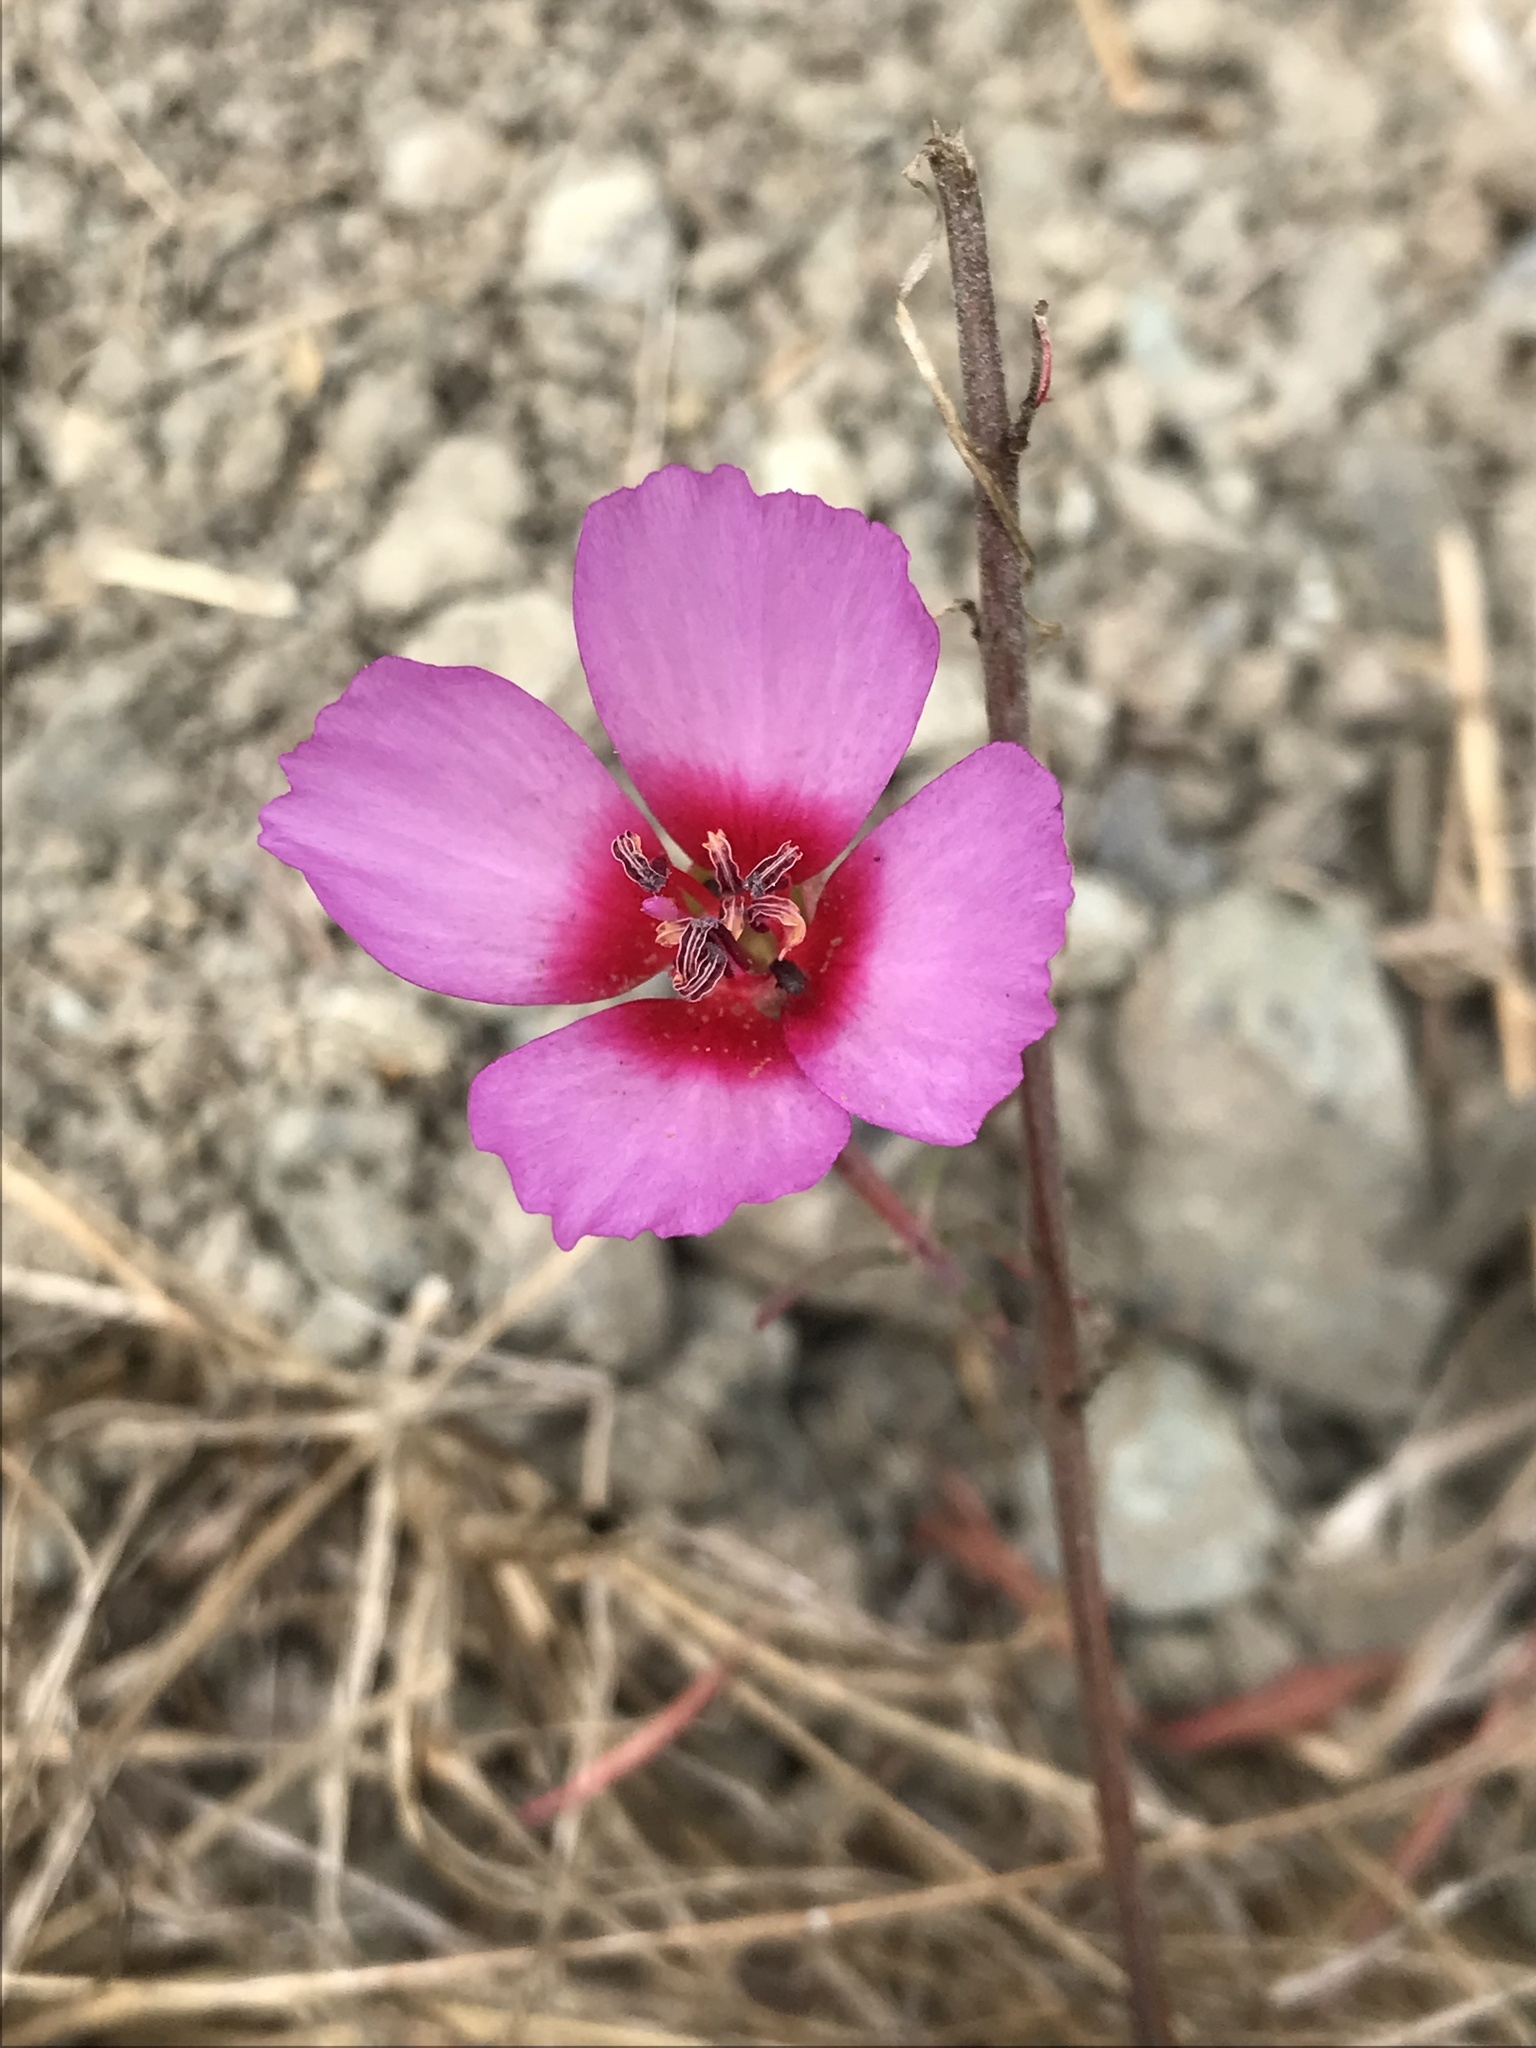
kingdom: Plantae
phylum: Tracheophyta
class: Magnoliopsida
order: Myrtales
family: Onagraceae
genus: Clarkia
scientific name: Clarkia rubicunda
